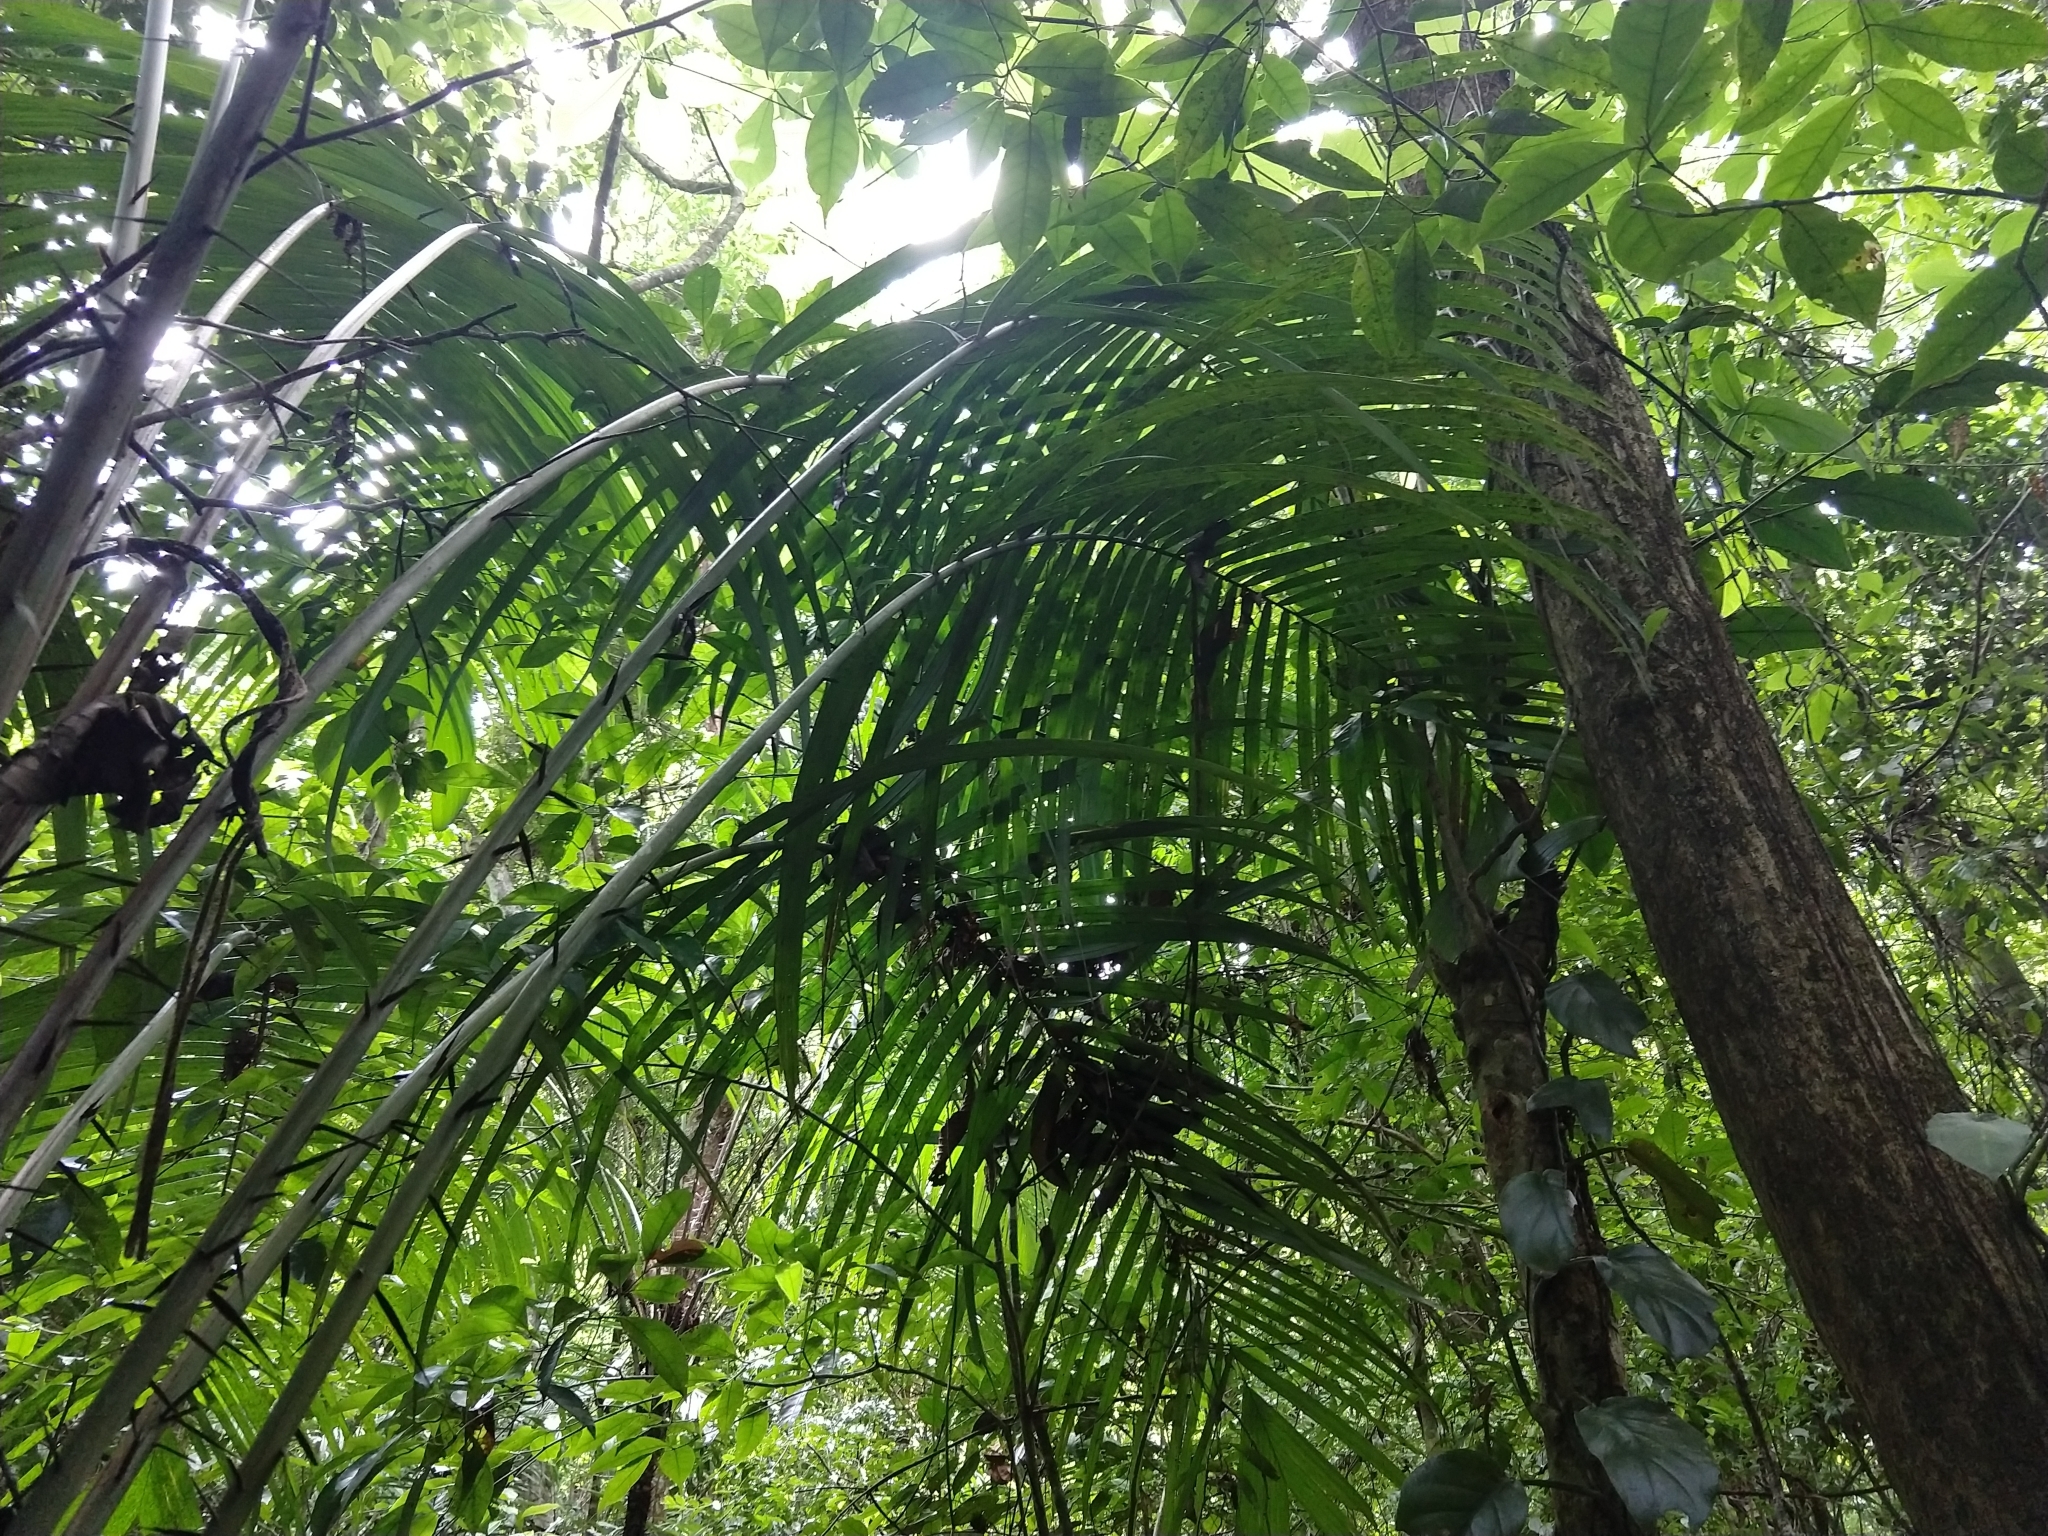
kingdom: Plantae
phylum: Tracheophyta
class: Liliopsida
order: Arecales
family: Arecaceae
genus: Astrocaryum
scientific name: Astrocaryum mexicanum
